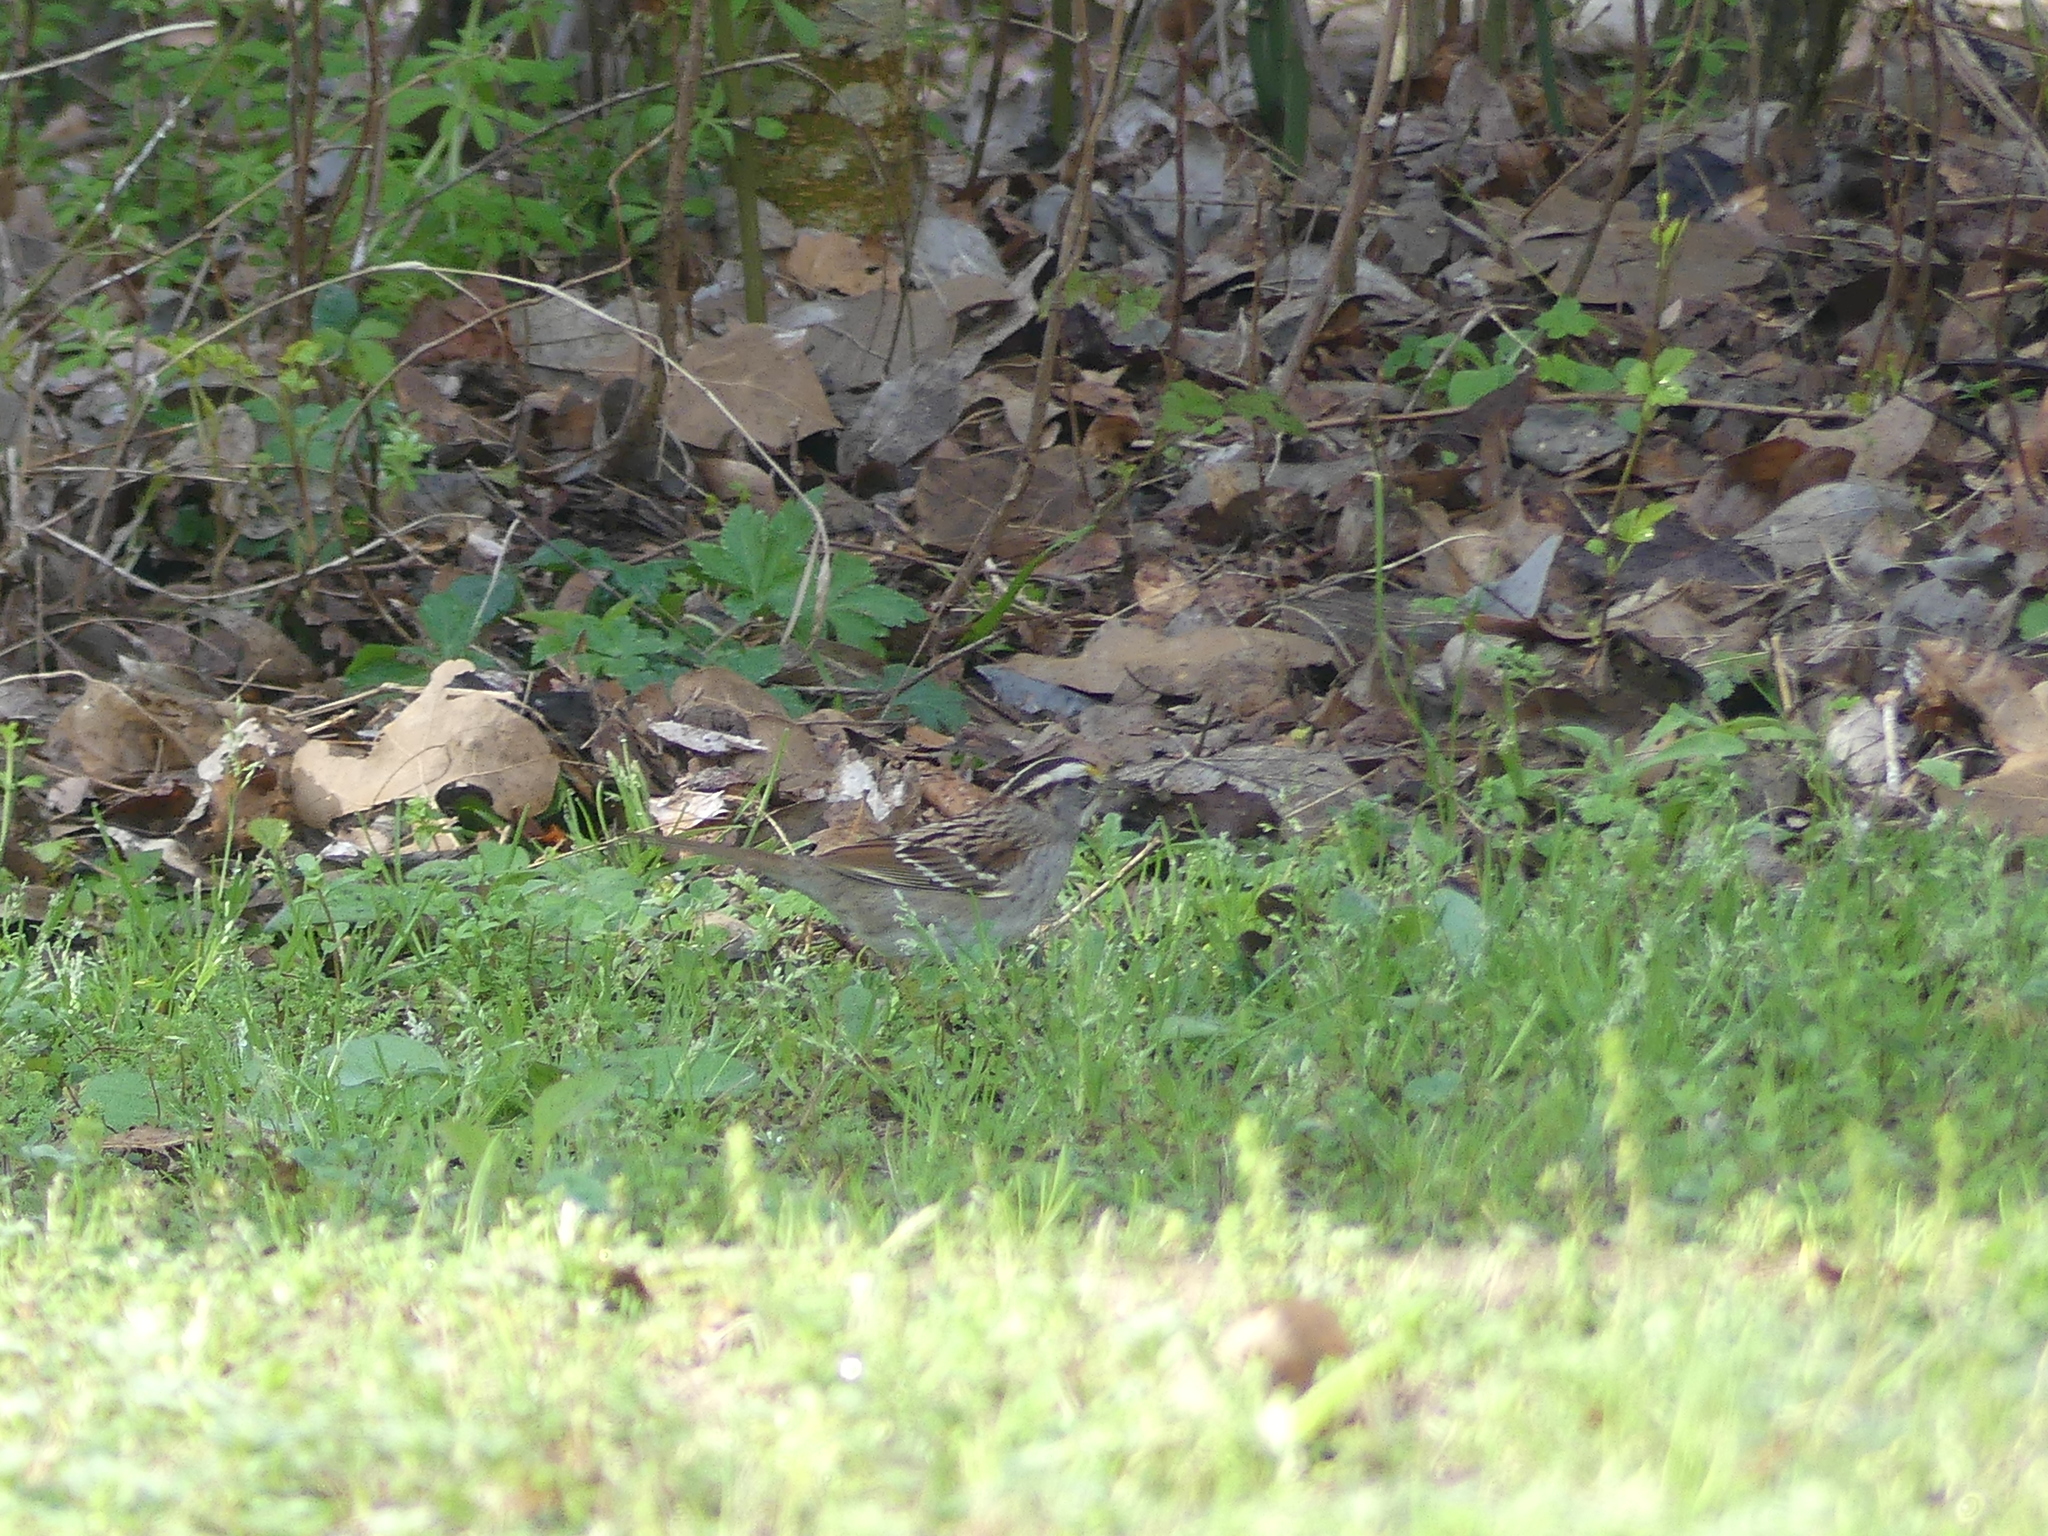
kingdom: Animalia
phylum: Chordata
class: Aves
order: Passeriformes
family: Passerellidae
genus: Zonotrichia
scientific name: Zonotrichia albicollis
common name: White-throated sparrow
